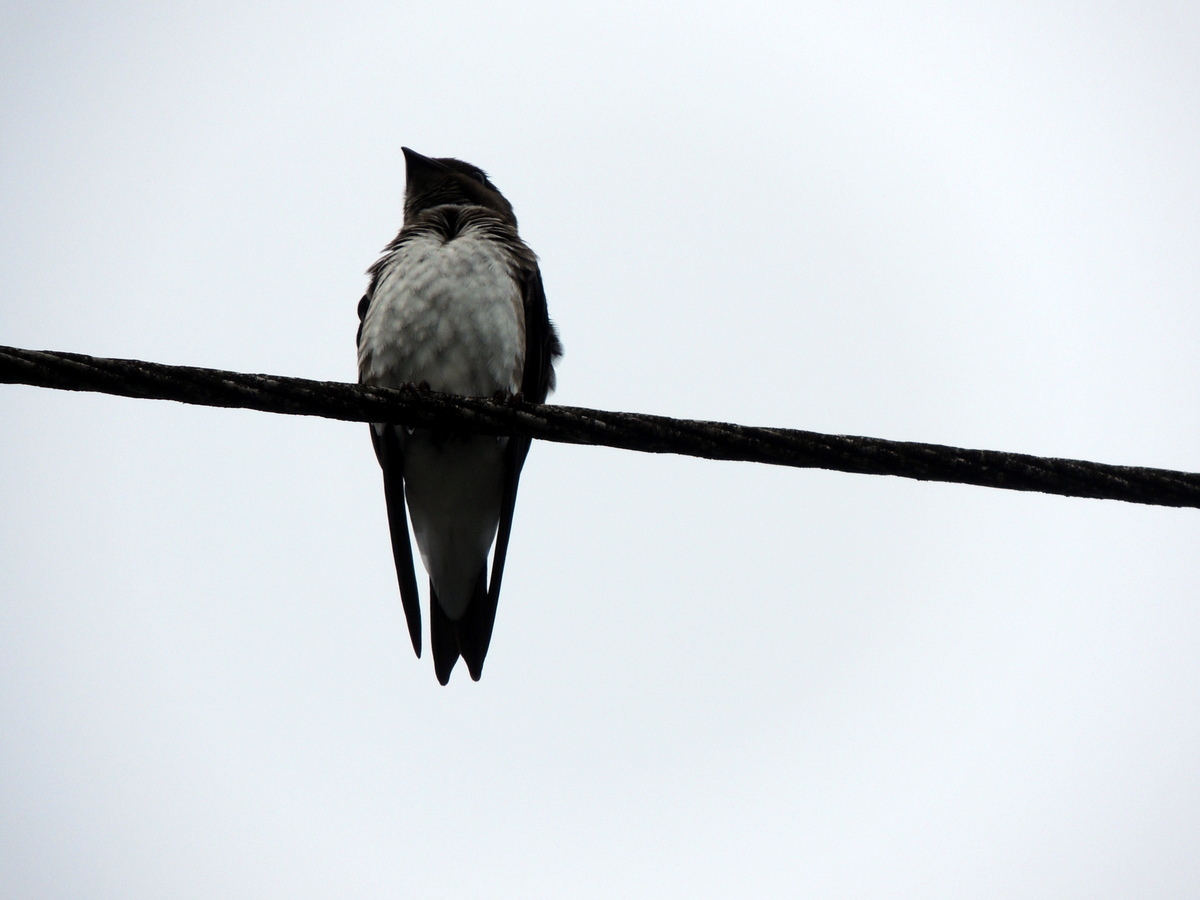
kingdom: Animalia
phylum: Chordata
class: Aves
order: Passeriformes
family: Hirundinidae
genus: Progne
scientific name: Progne chalybea
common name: Grey-breasted martin
